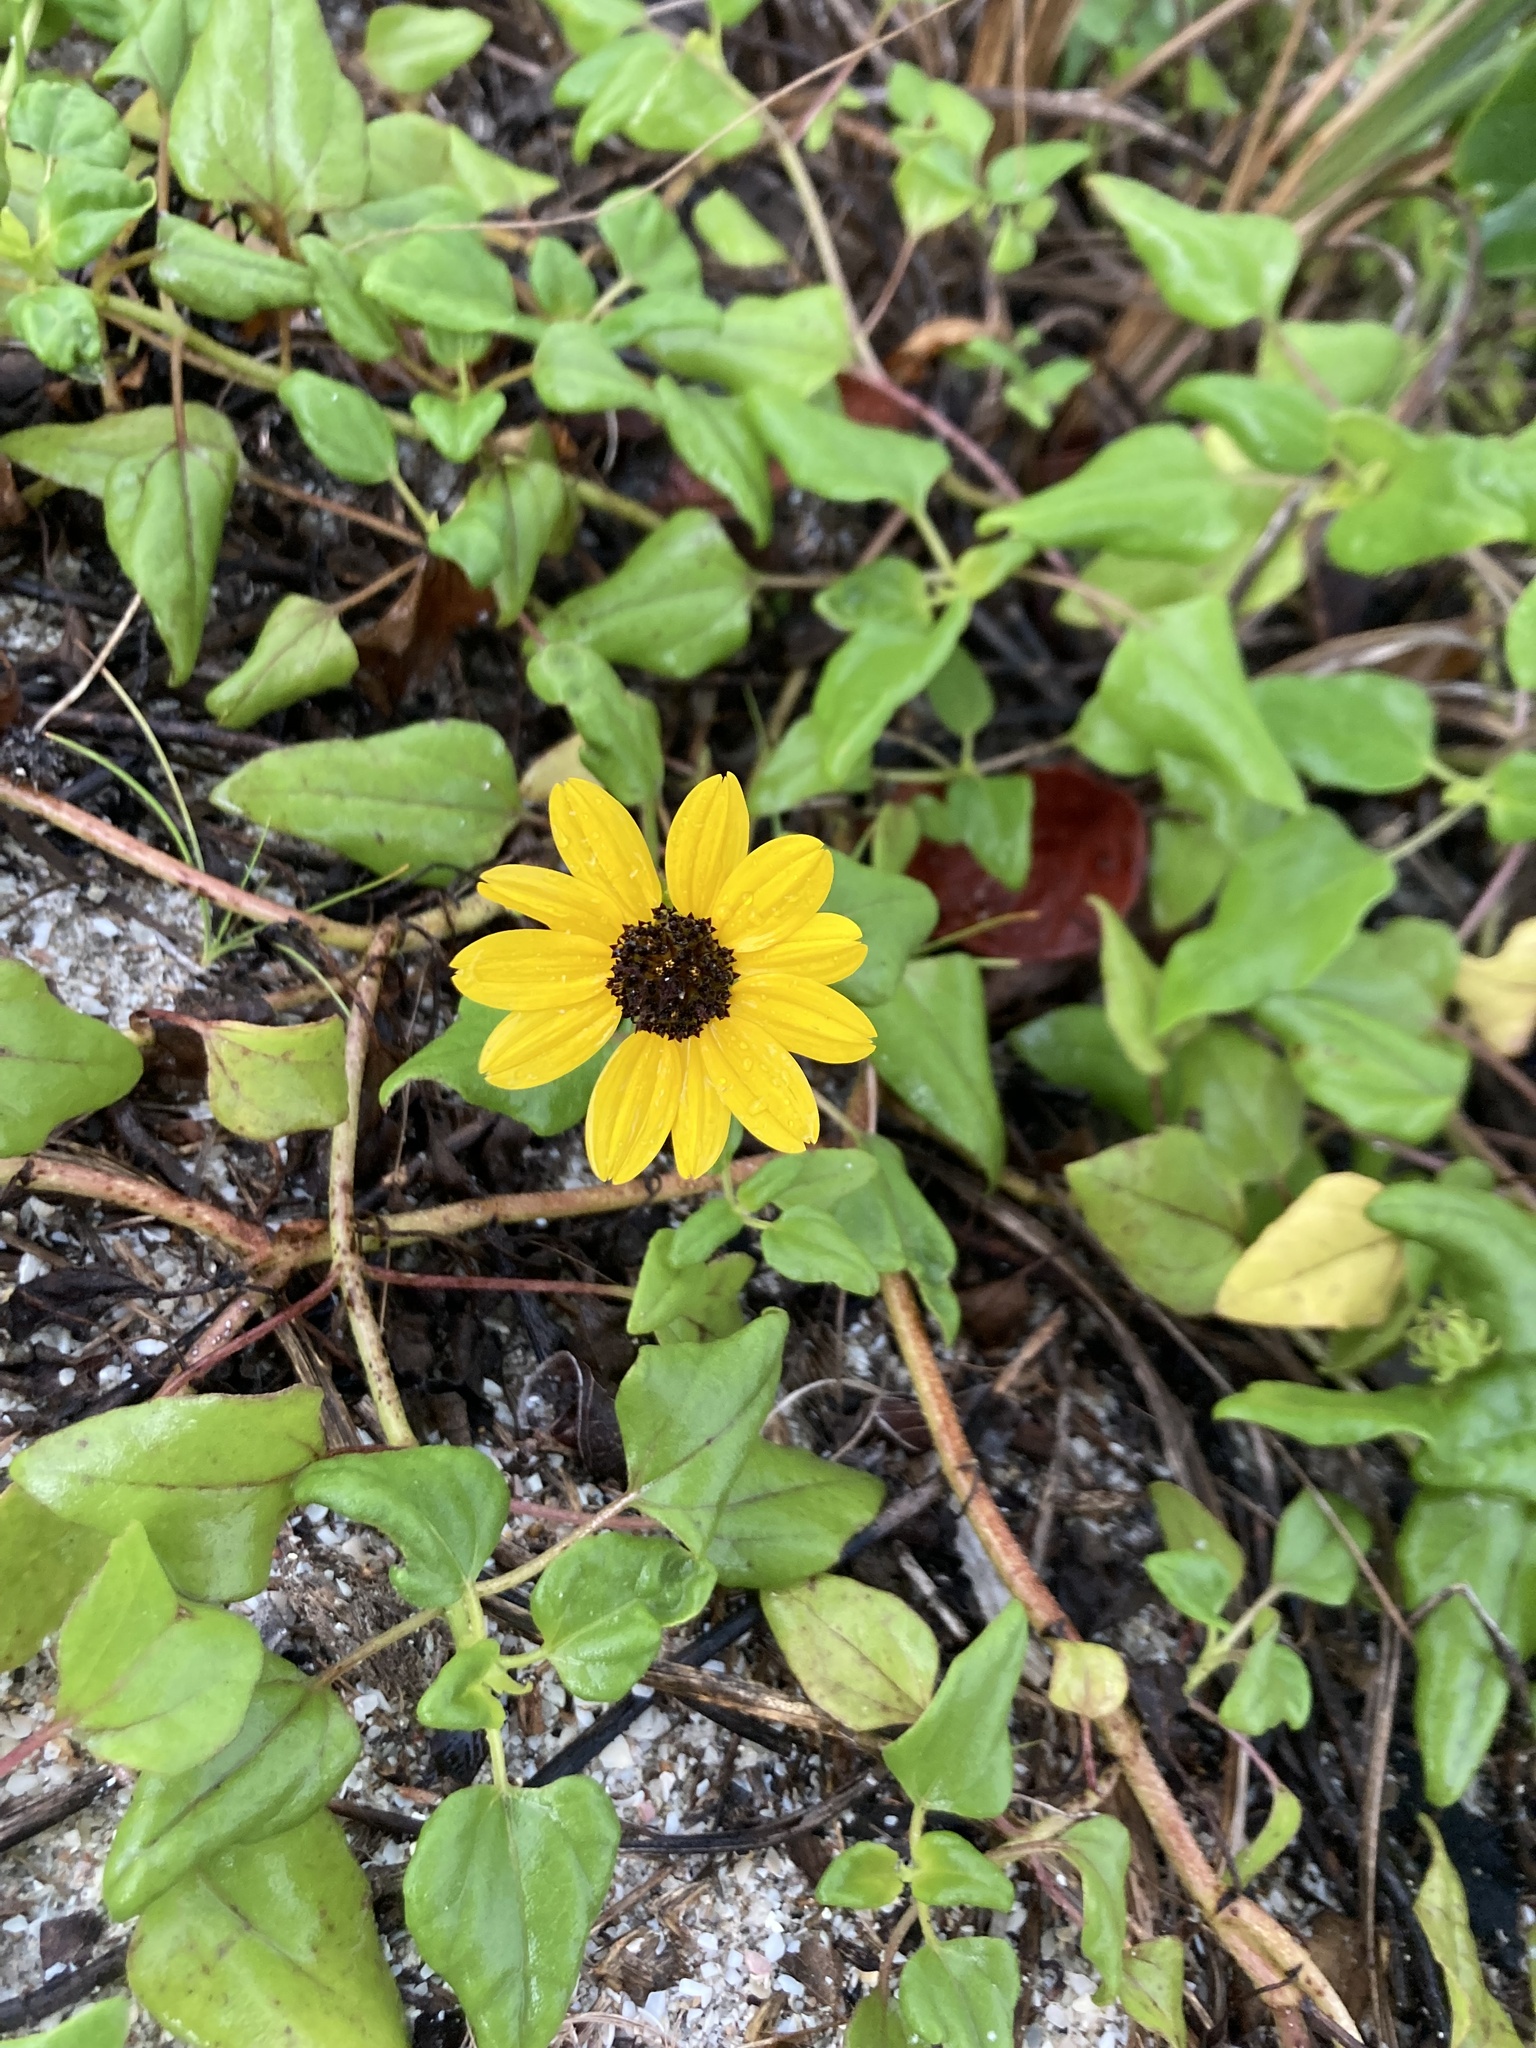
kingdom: Plantae
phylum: Tracheophyta
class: Magnoliopsida
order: Asterales
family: Asteraceae
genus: Helianthus
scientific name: Helianthus debilis
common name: Weak sunflower
